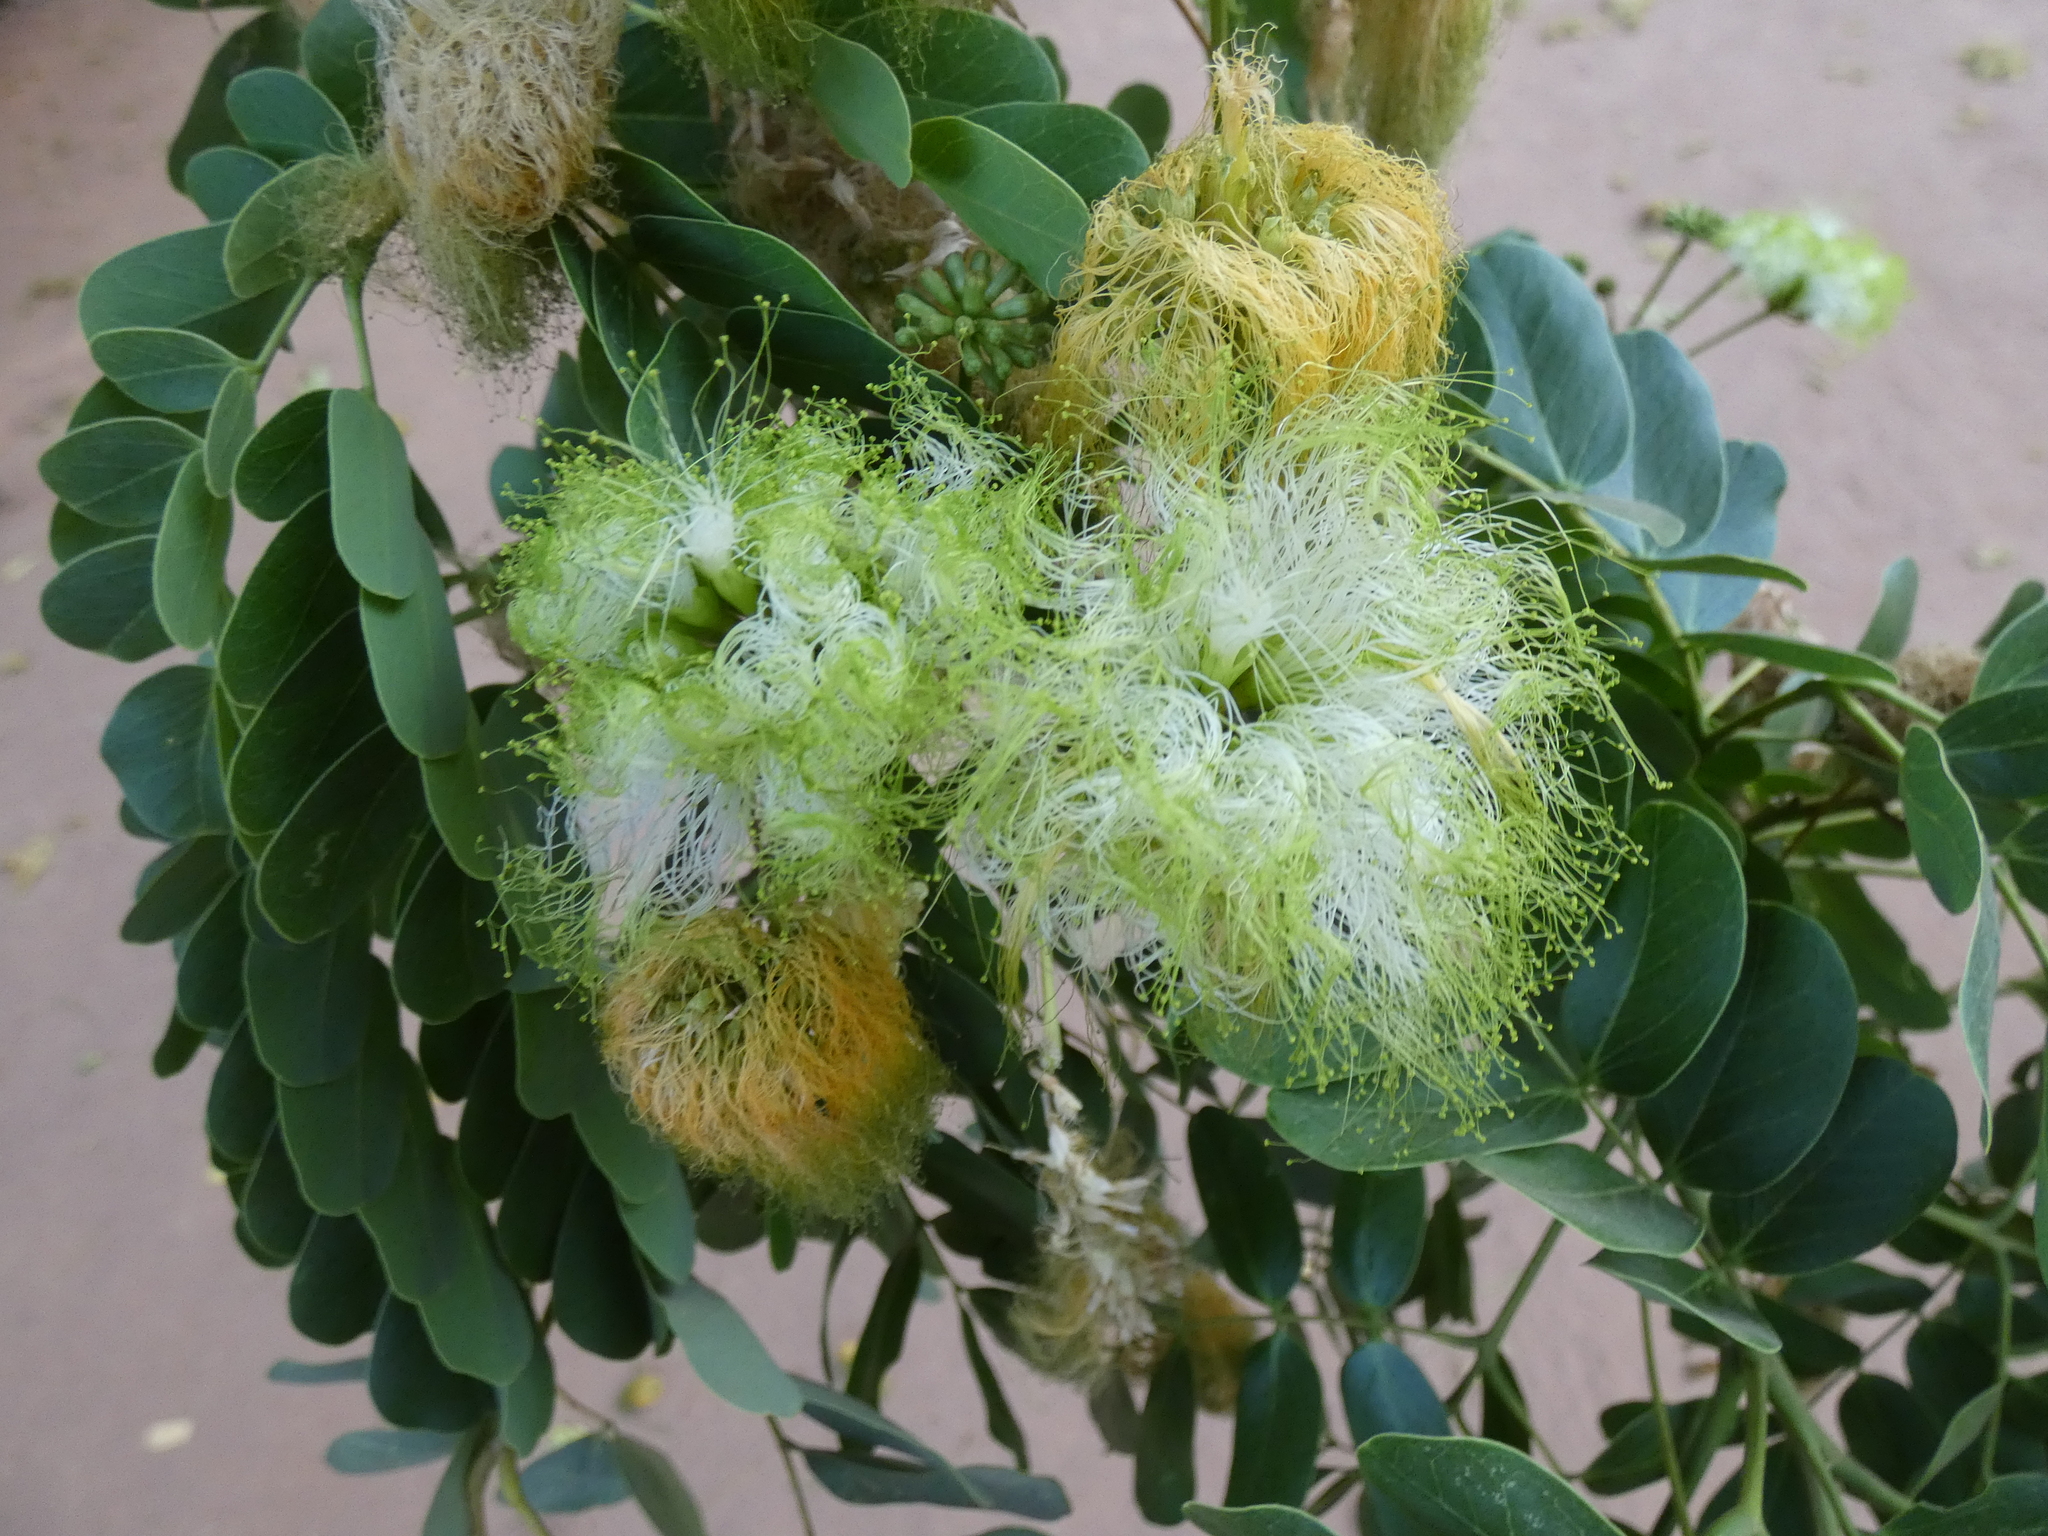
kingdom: Plantae
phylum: Tracheophyta
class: Magnoliopsida
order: Fabales
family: Fabaceae
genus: Albizia
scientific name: Albizia lebbeck
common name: Woman's tongue
